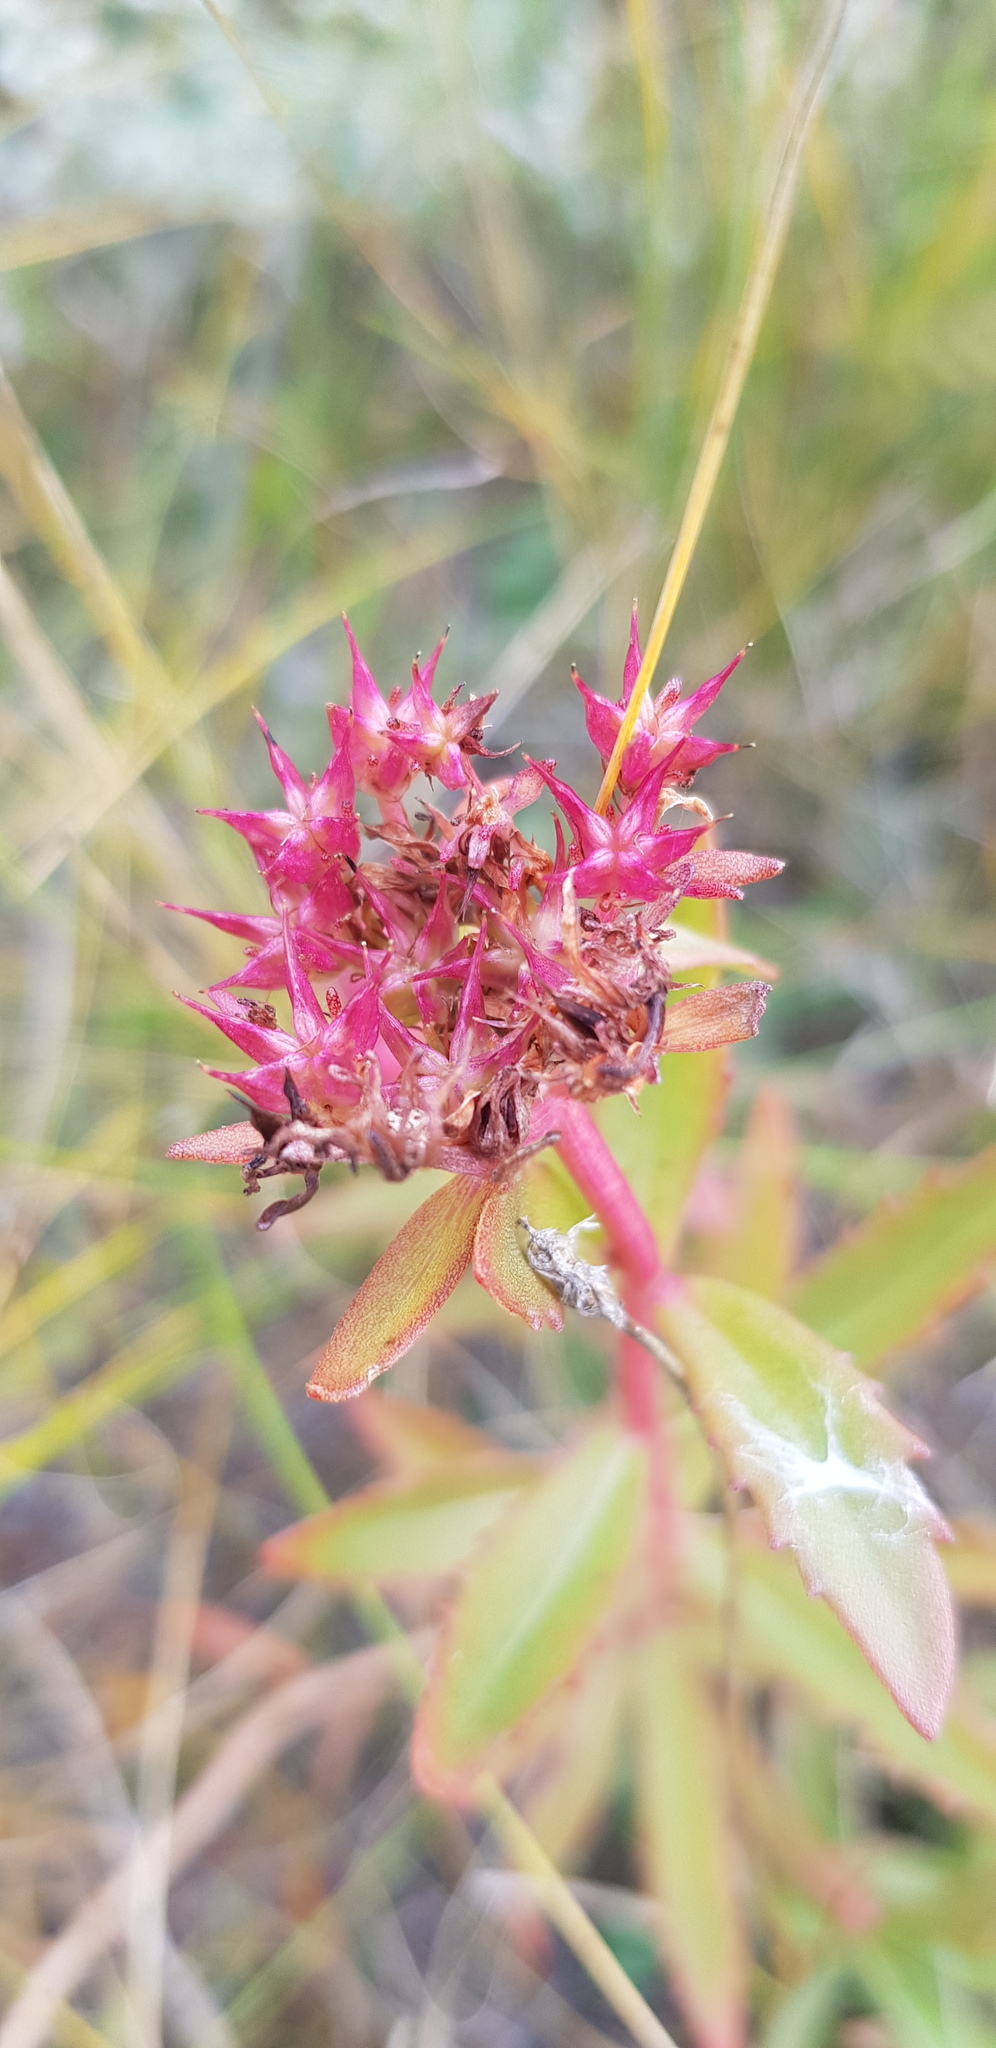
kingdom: Plantae
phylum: Tracheophyta
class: Magnoliopsida
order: Saxifragales
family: Crassulaceae
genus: Phedimus
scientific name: Phedimus aizoon
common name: Orpin aizoon
